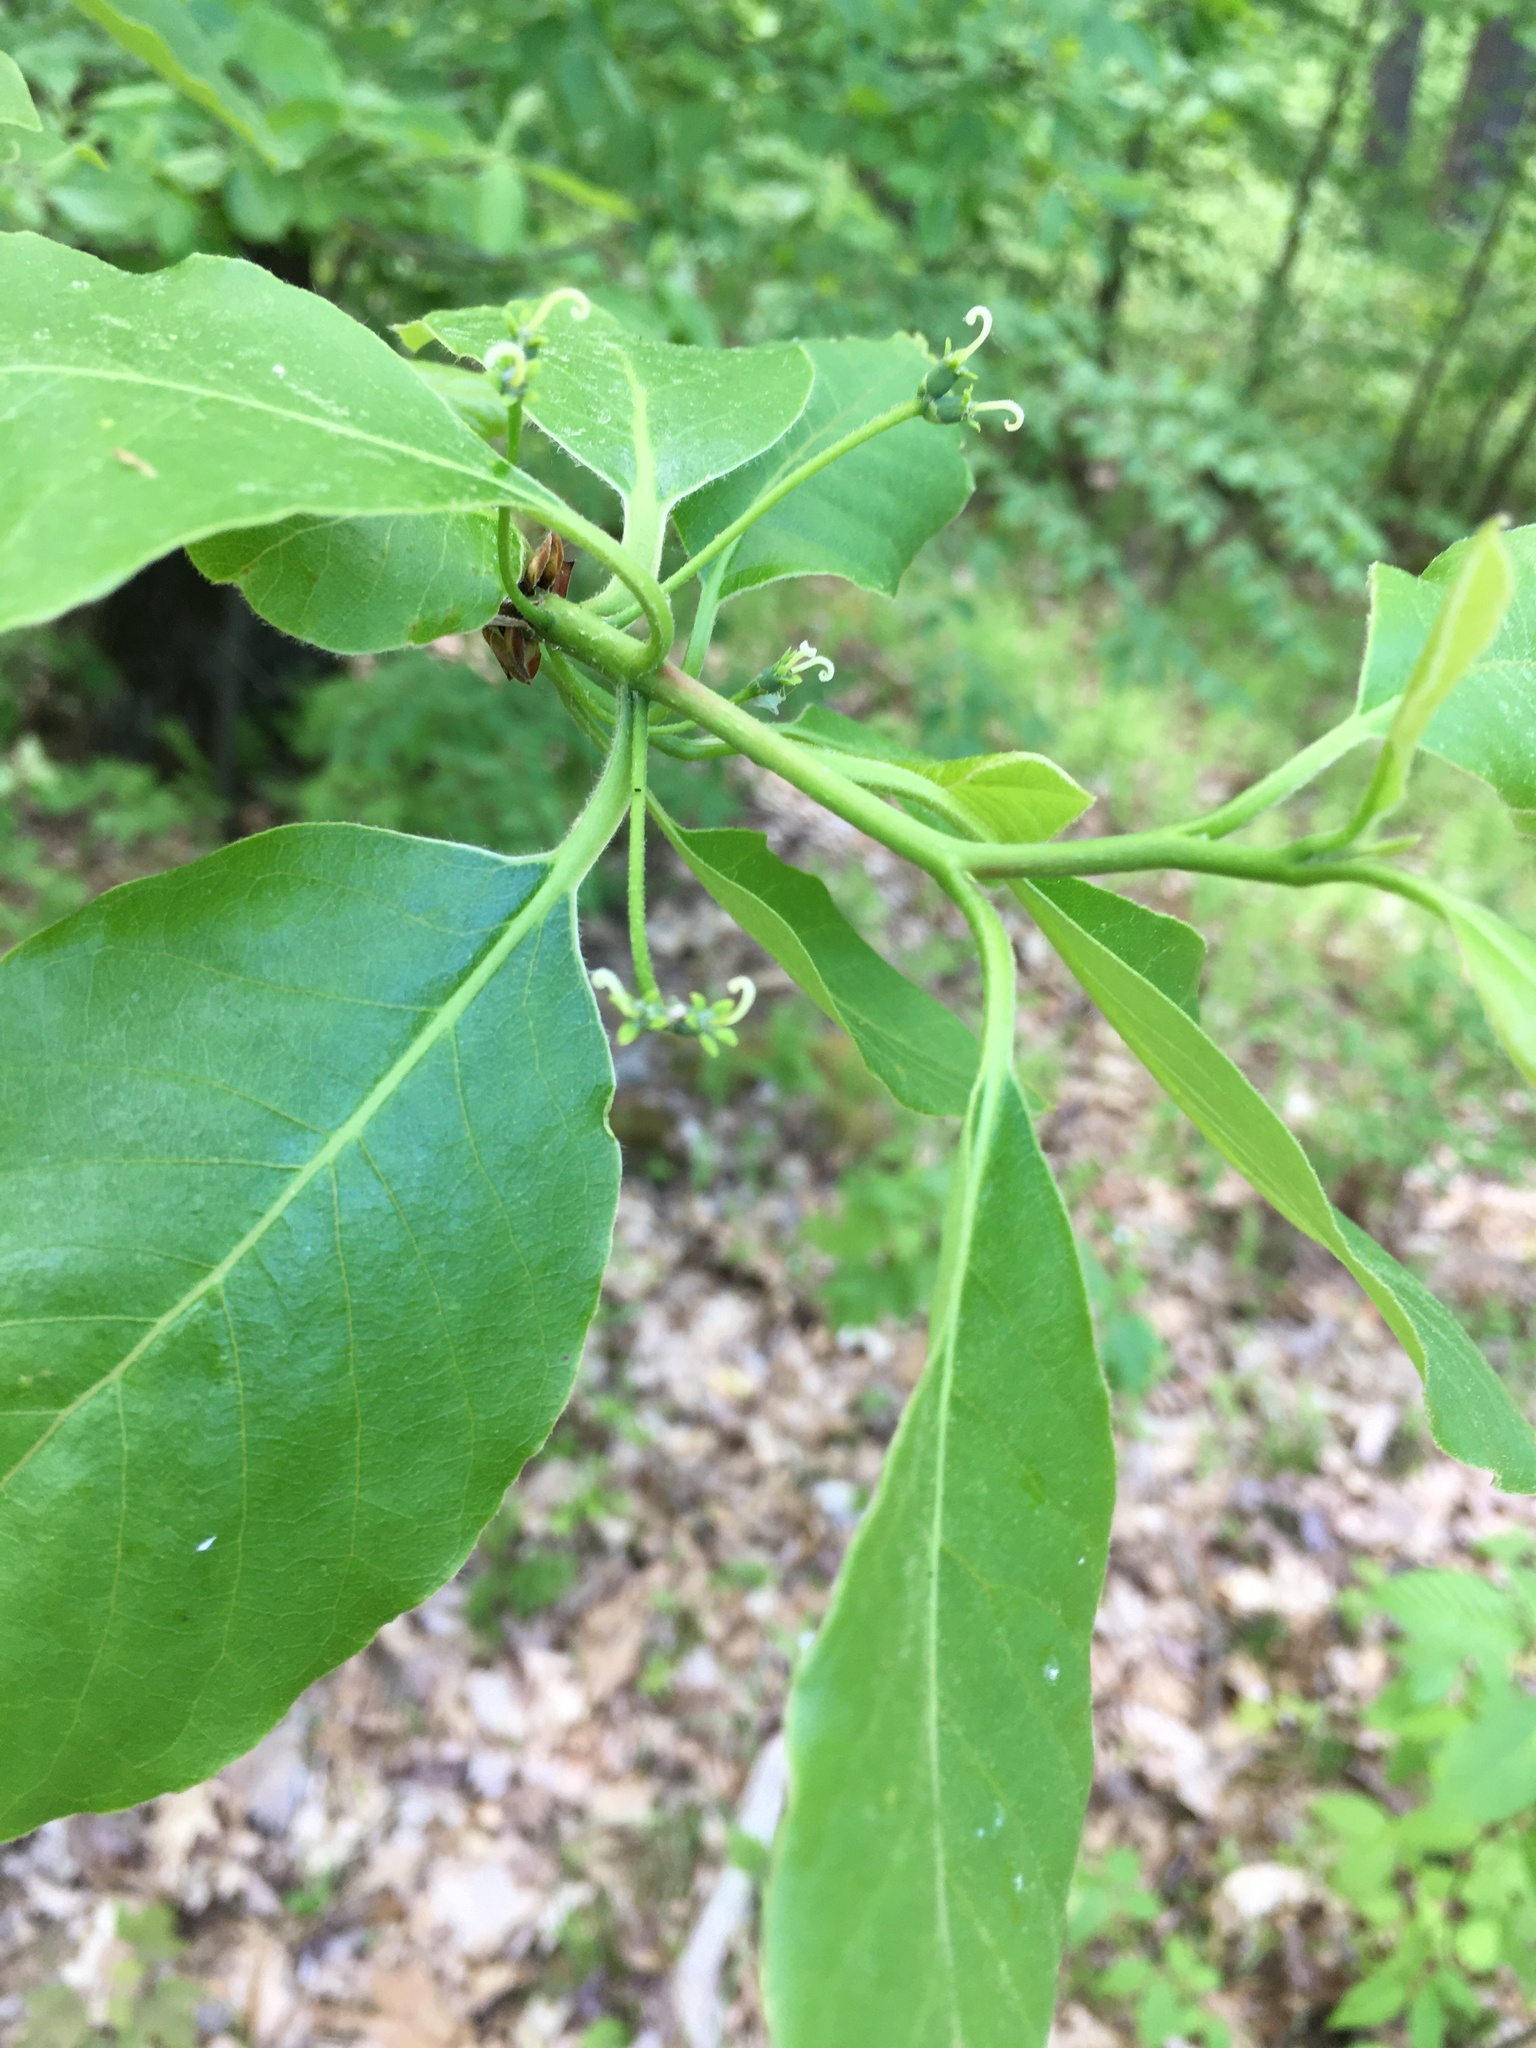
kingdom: Plantae
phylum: Tracheophyta
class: Magnoliopsida
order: Cornales
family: Nyssaceae
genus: Nyssa
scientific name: Nyssa sylvatica
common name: Black tupelo
